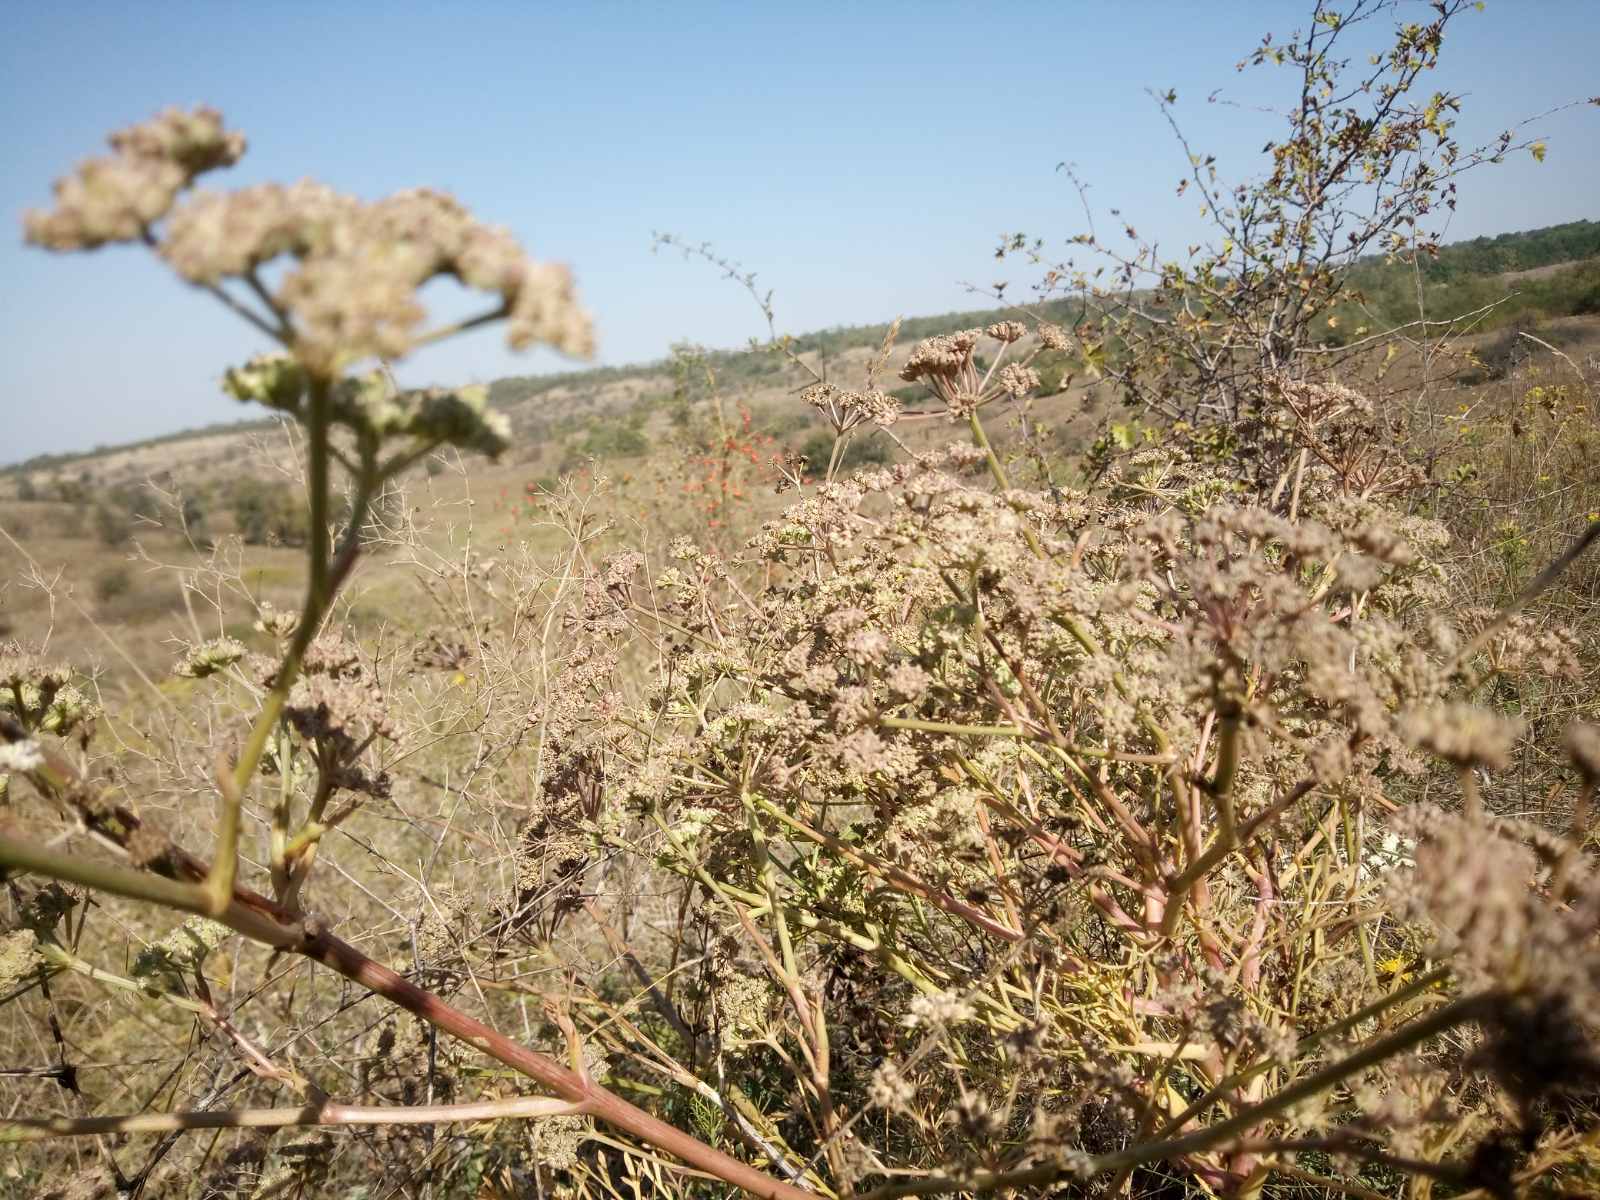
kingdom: Plantae
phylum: Tracheophyta
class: Magnoliopsida
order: Apiales
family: Apiaceae
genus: Seseli
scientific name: Seseli arenarium
